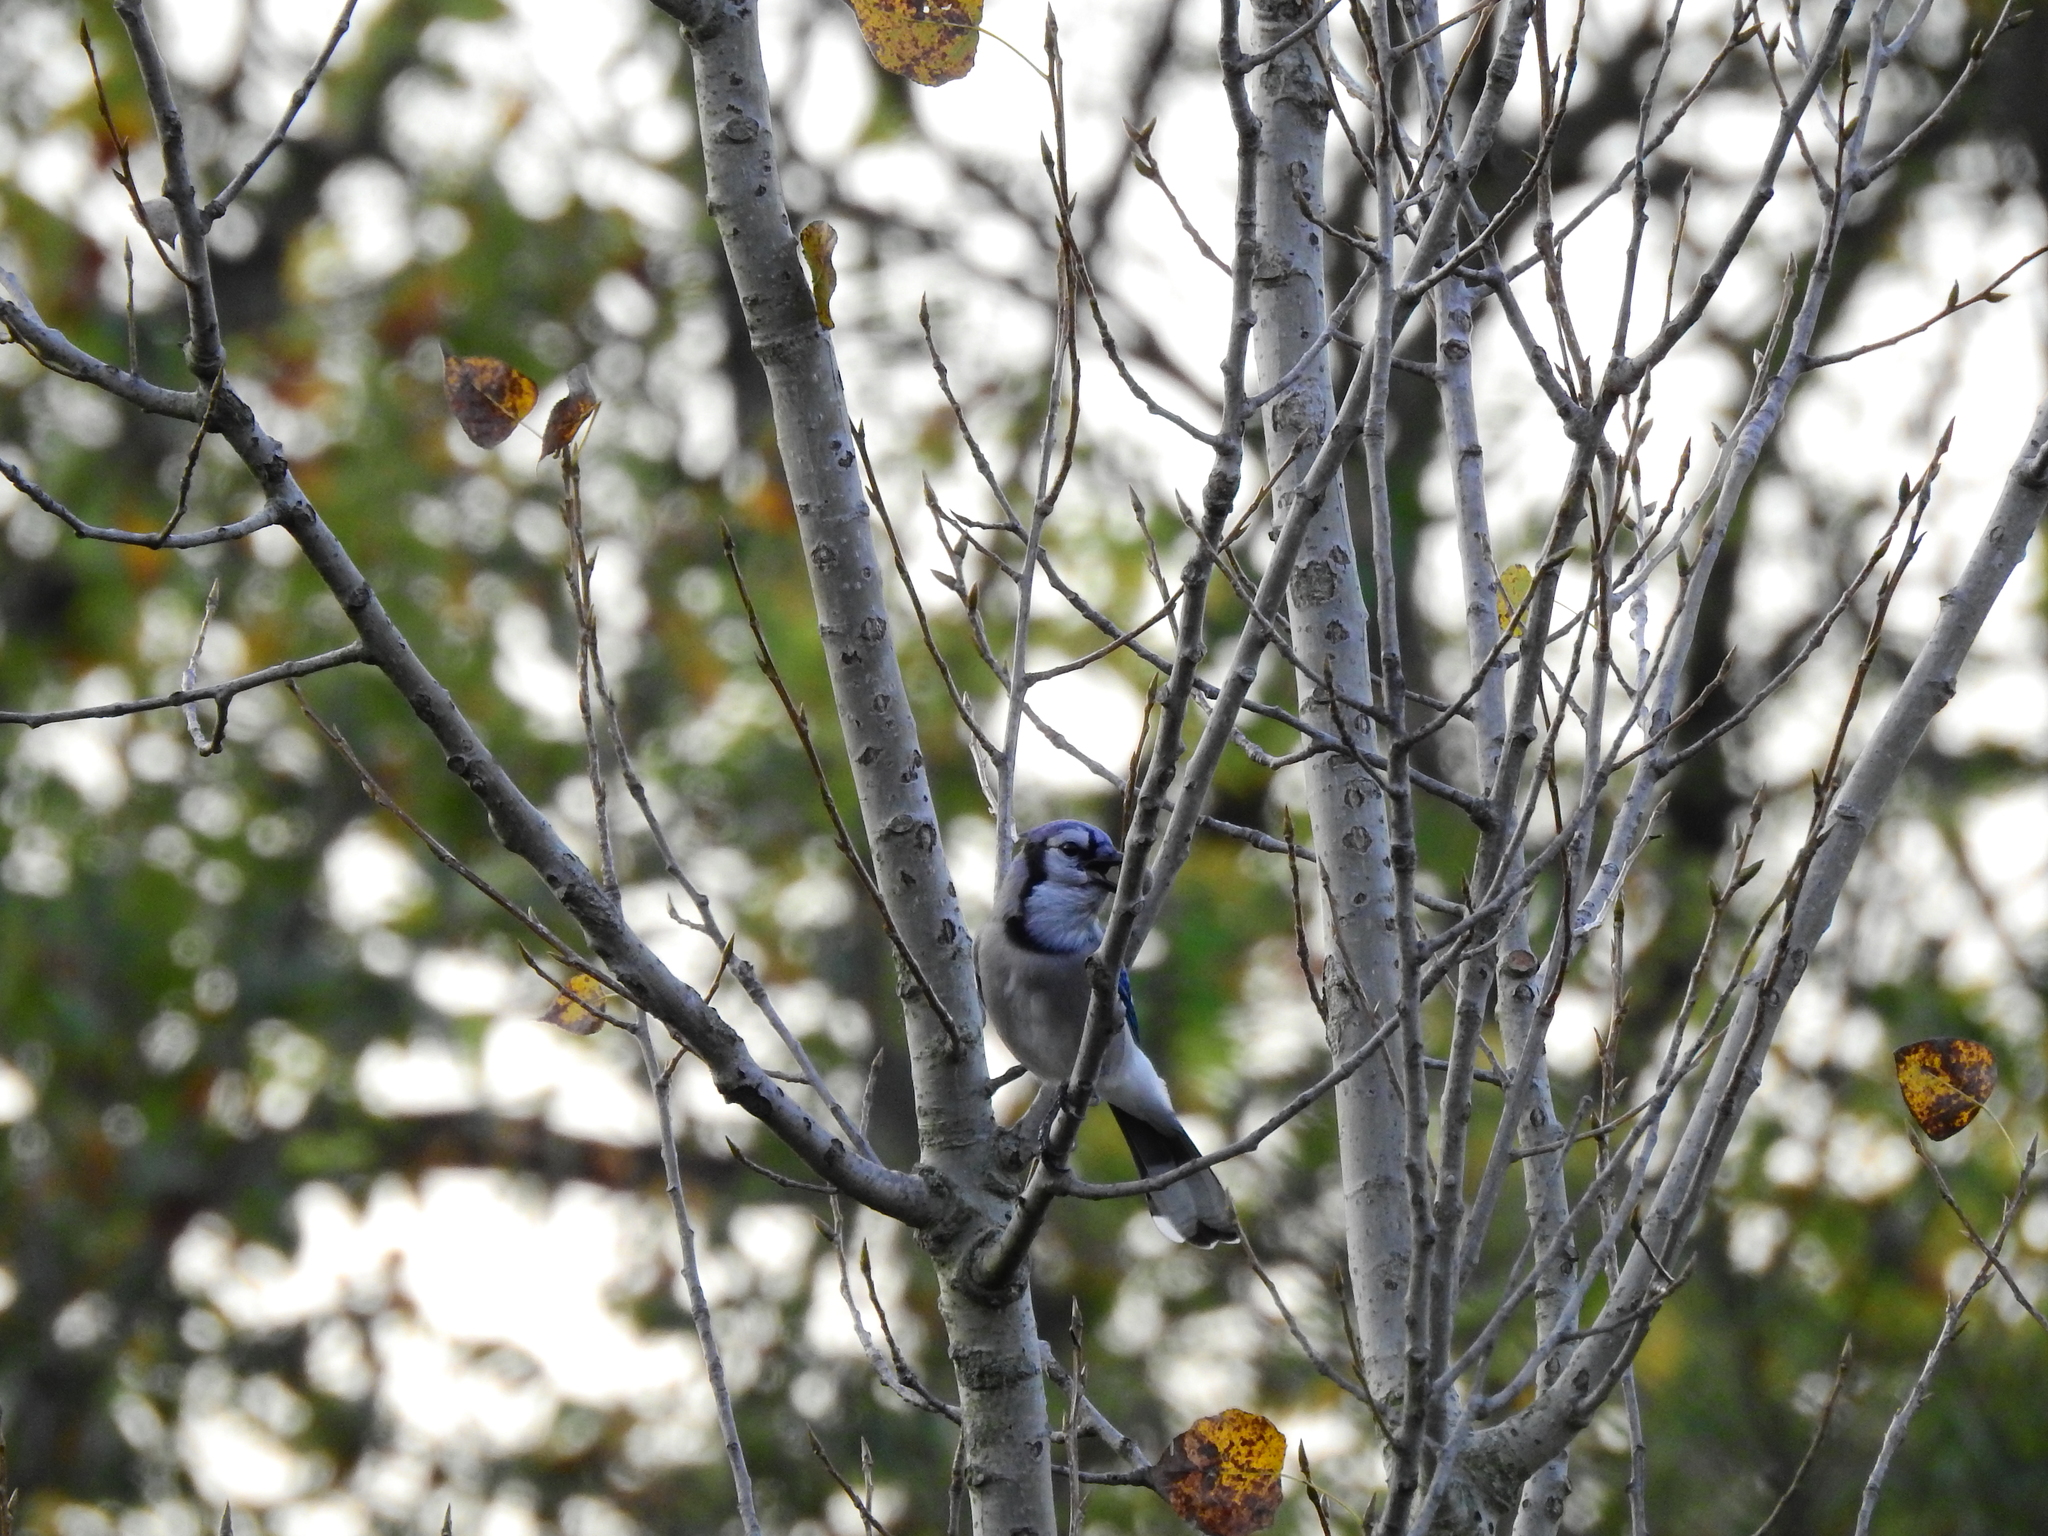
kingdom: Animalia
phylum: Chordata
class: Aves
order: Passeriformes
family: Corvidae
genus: Cyanocitta
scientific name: Cyanocitta cristata
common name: Blue jay
